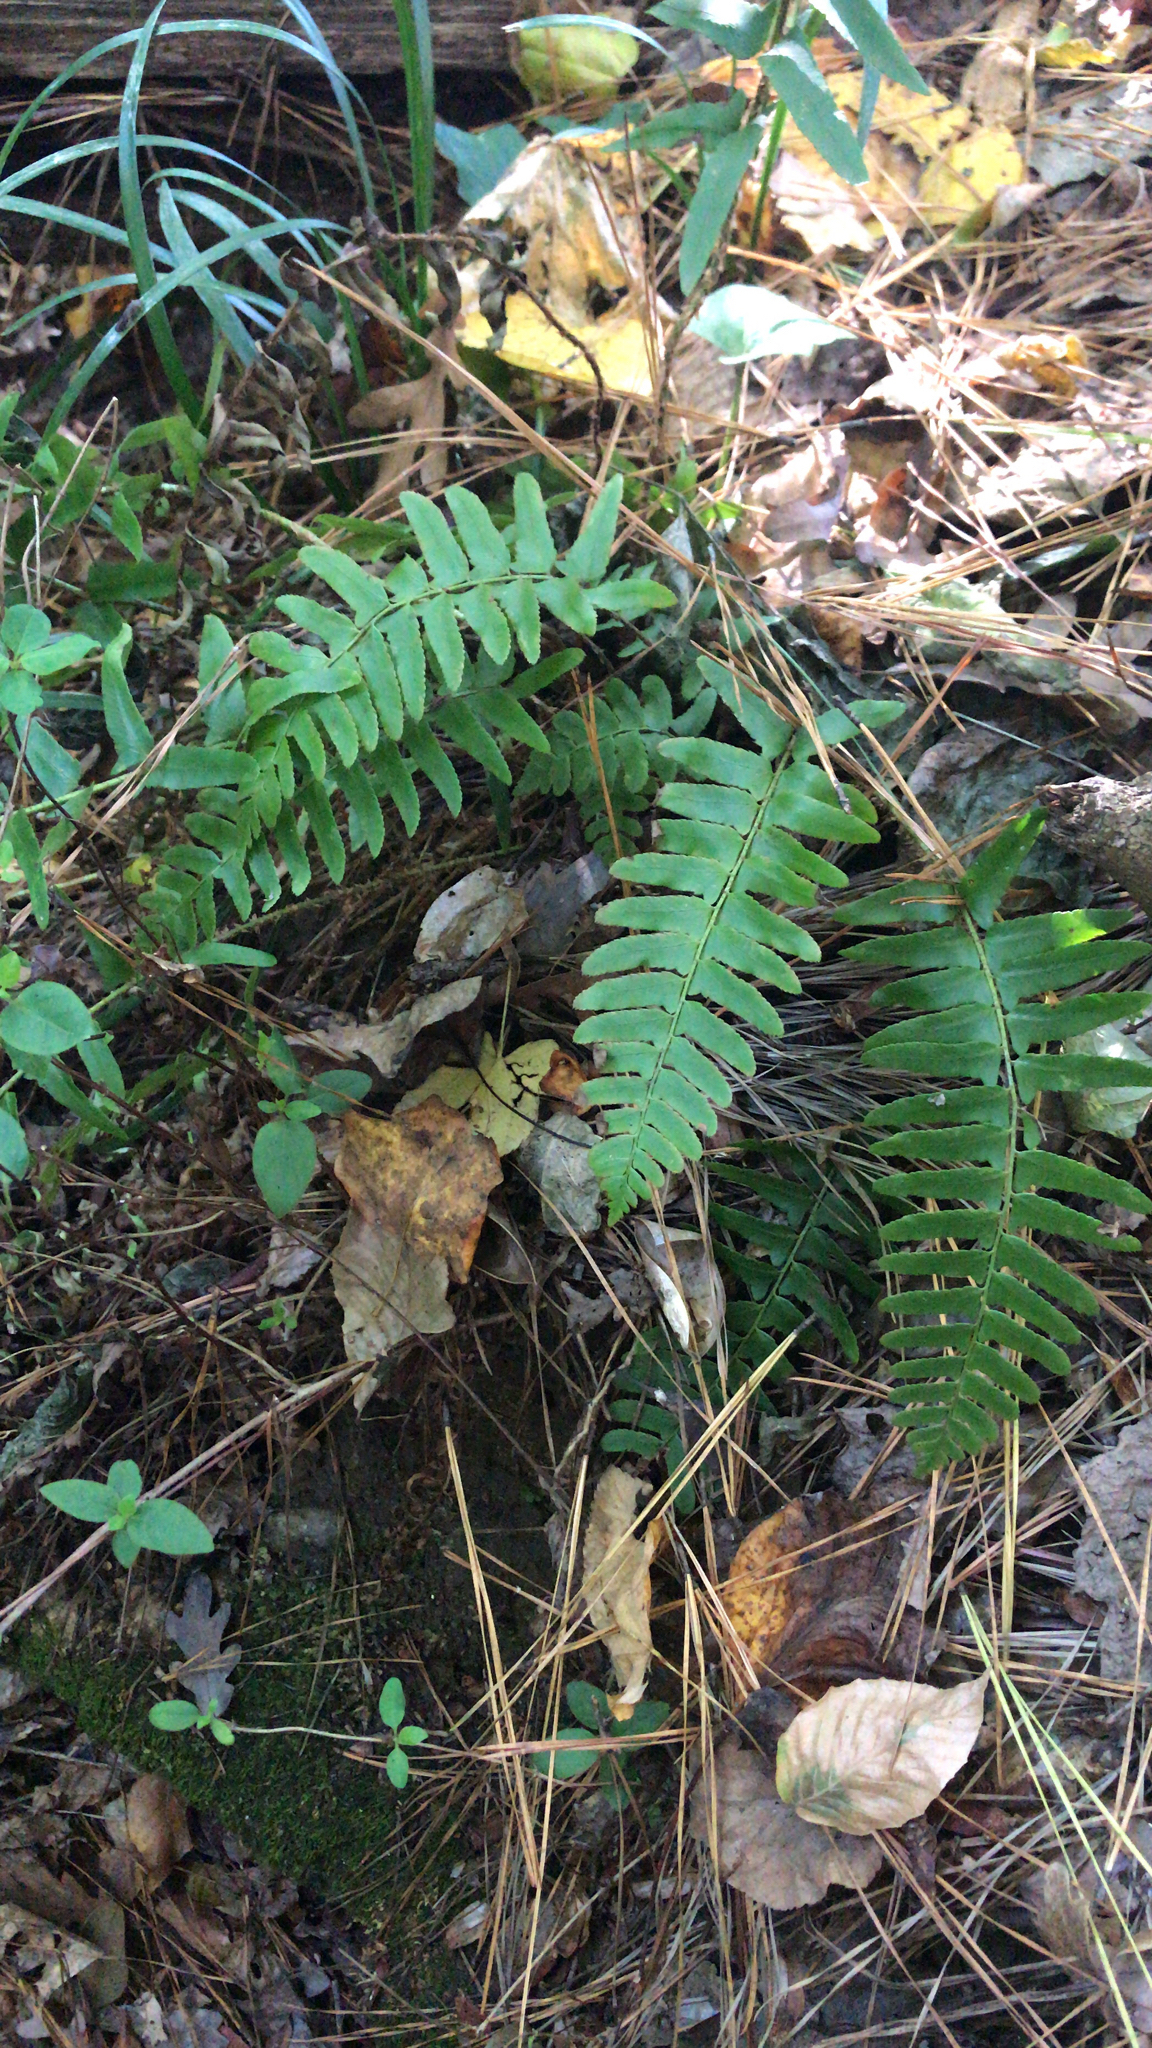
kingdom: Plantae
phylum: Tracheophyta
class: Polypodiopsida
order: Polypodiales
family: Dryopteridaceae
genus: Polystichum
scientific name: Polystichum acrostichoides
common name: Christmas fern
